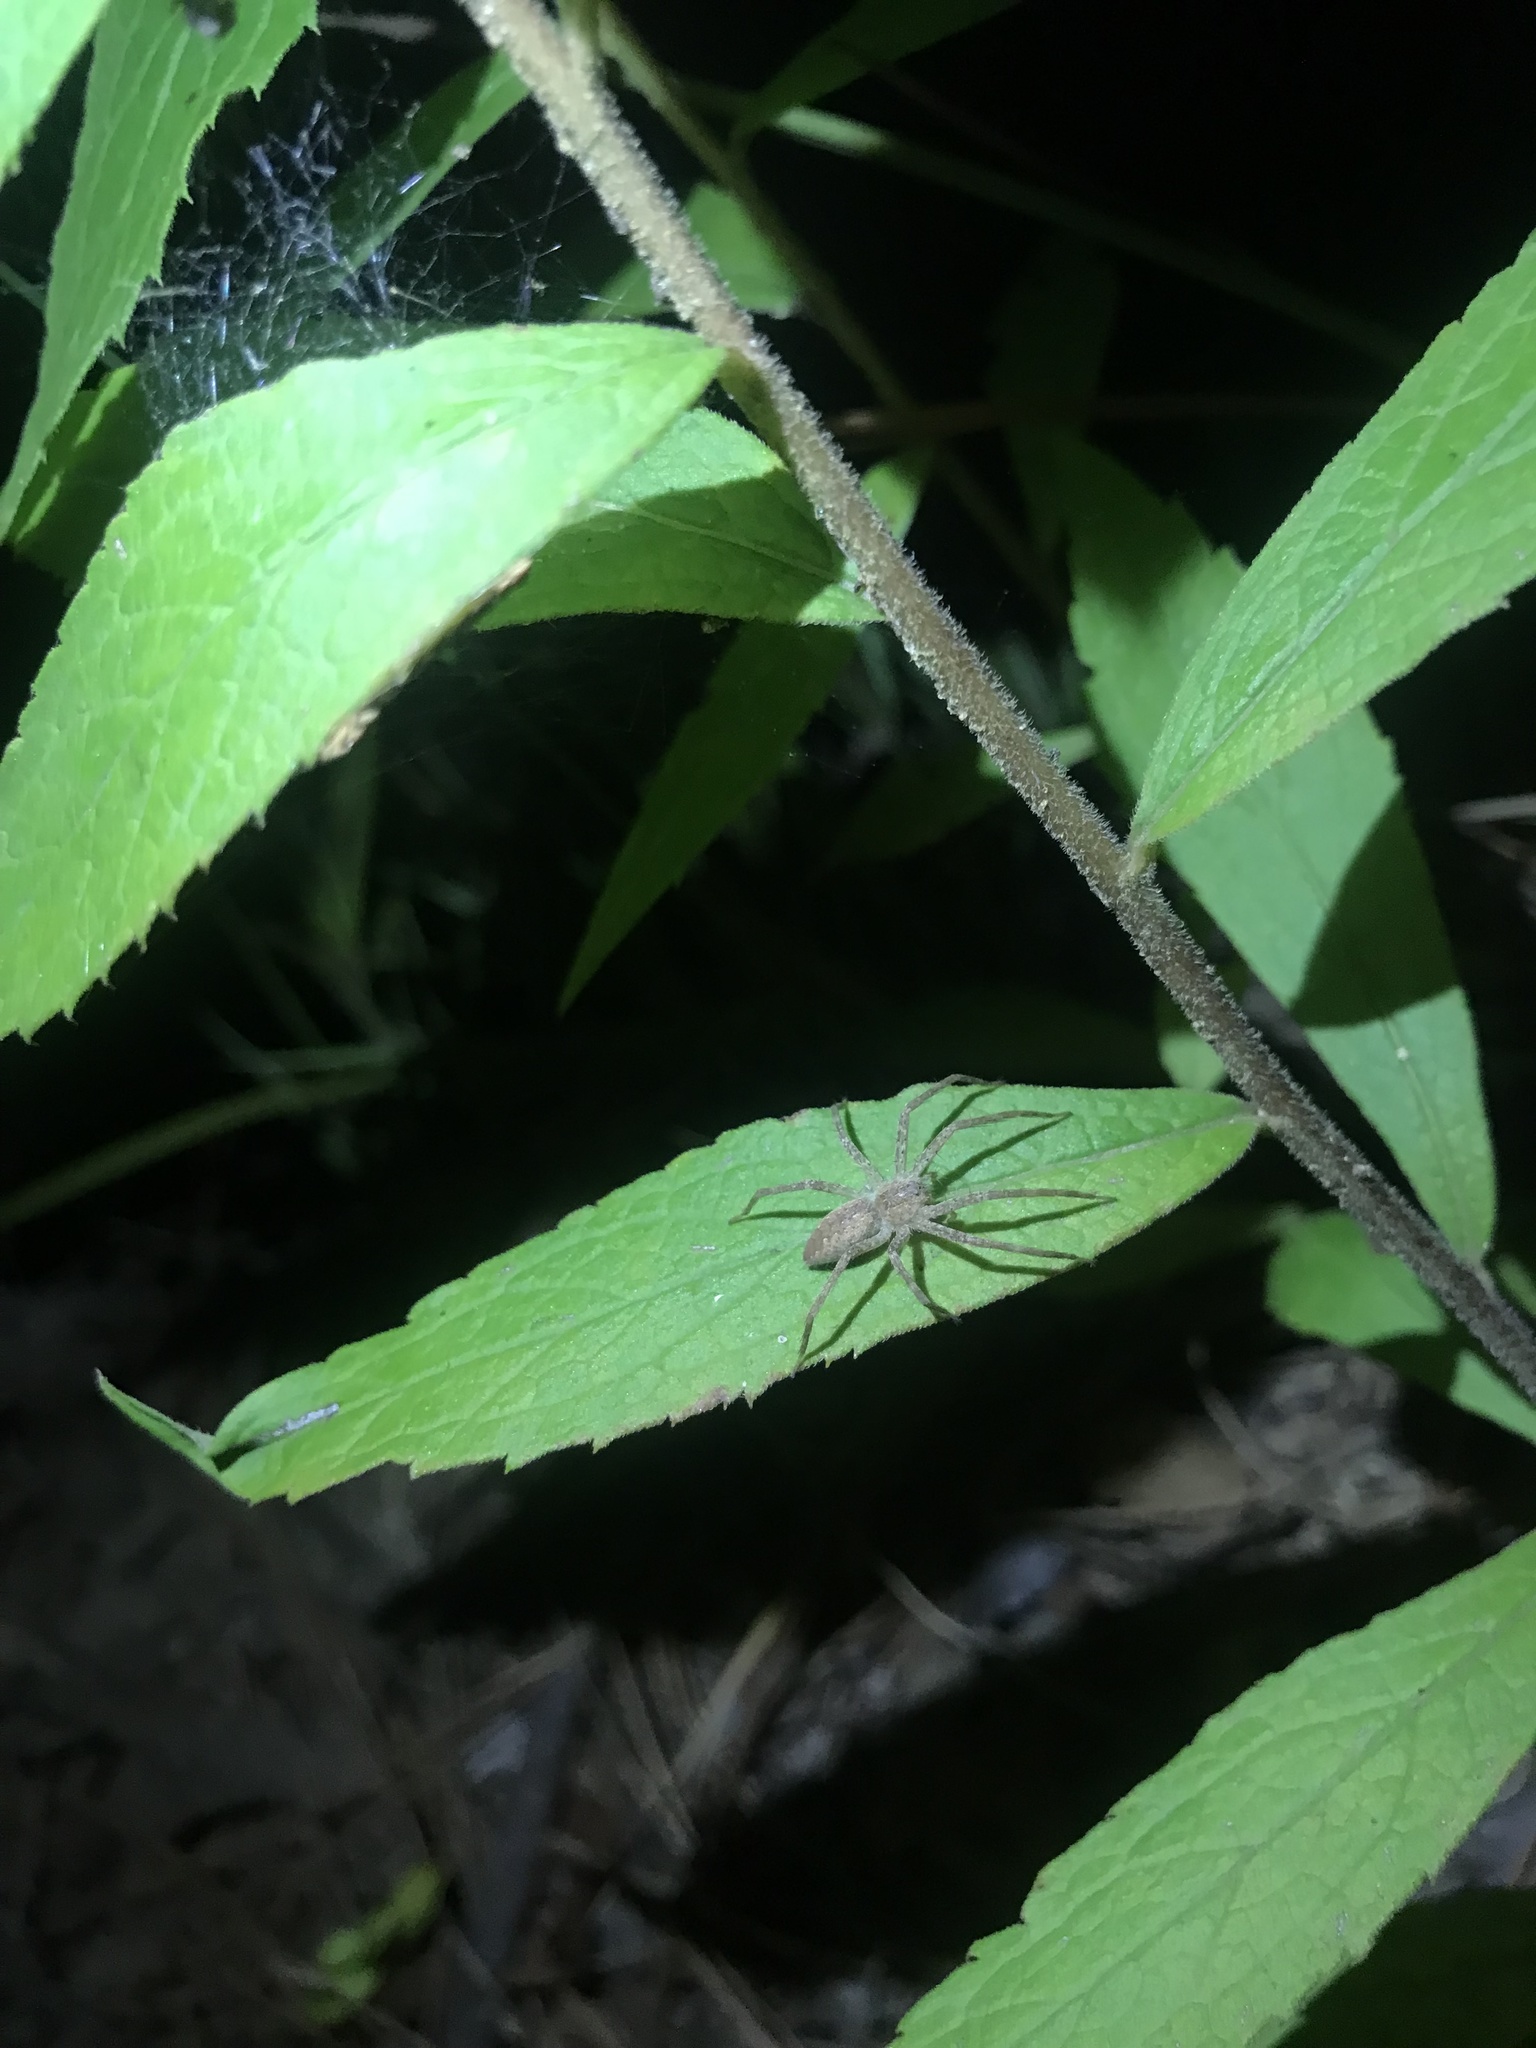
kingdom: Animalia
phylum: Arthropoda
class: Arachnida
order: Araneae
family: Pisauridae
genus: Pisaurina
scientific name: Pisaurina mira
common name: American nursery web spider
